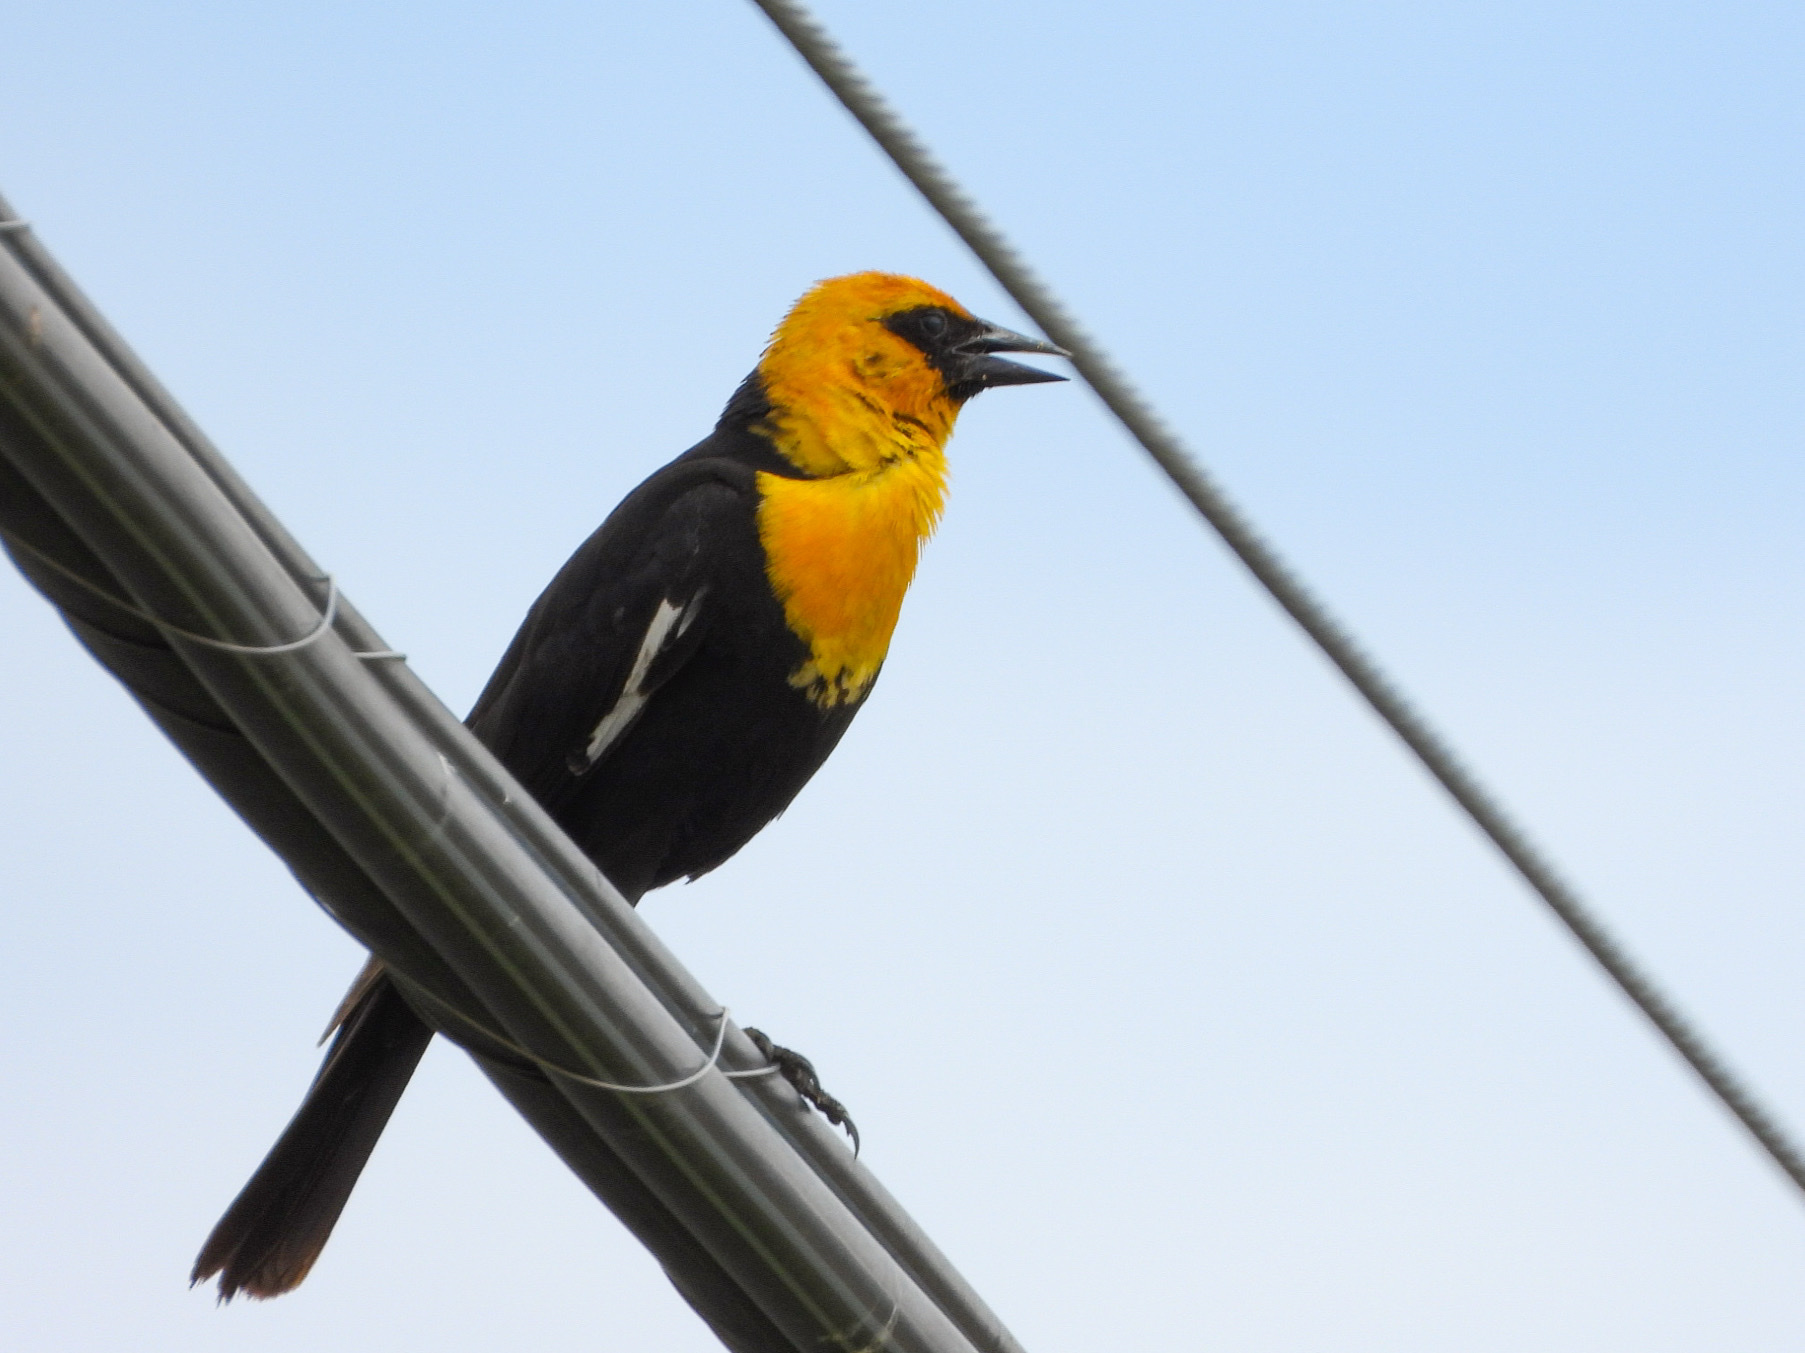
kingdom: Animalia
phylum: Chordata
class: Aves
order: Passeriformes
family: Icteridae
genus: Xanthocephalus
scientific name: Xanthocephalus xanthocephalus
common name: Yellow-headed blackbird
